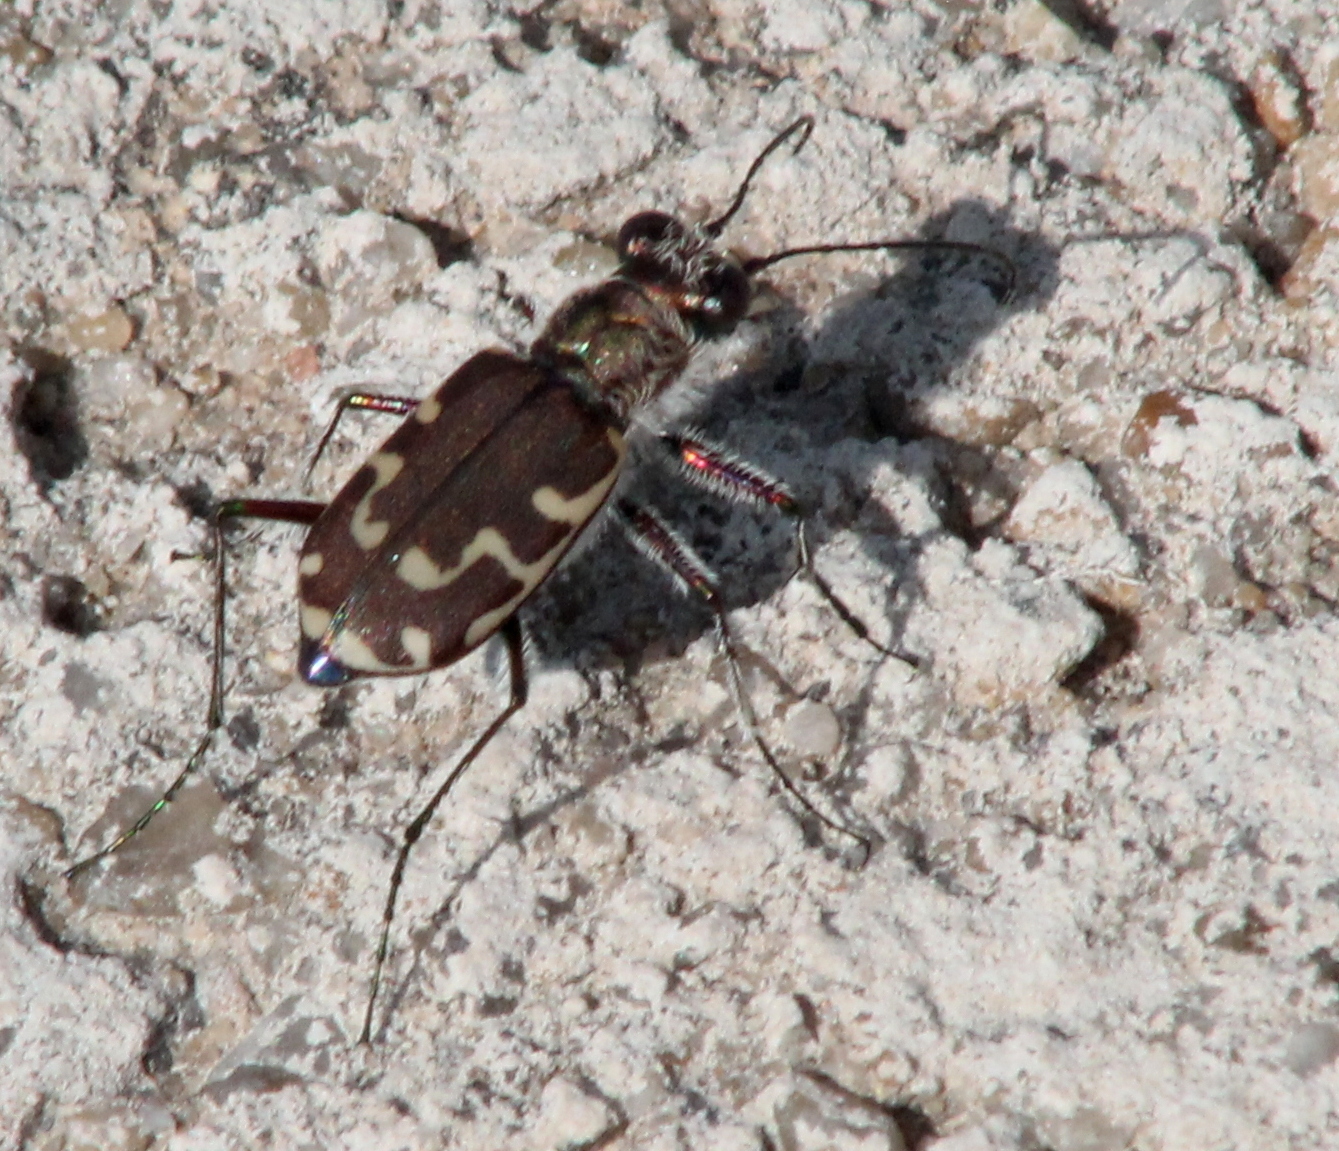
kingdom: Animalia
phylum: Arthropoda
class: Insecta
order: Coleoptera
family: Carabidae
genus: Cicindela
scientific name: Cicindela repanda
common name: Bronzed tiger beetle
